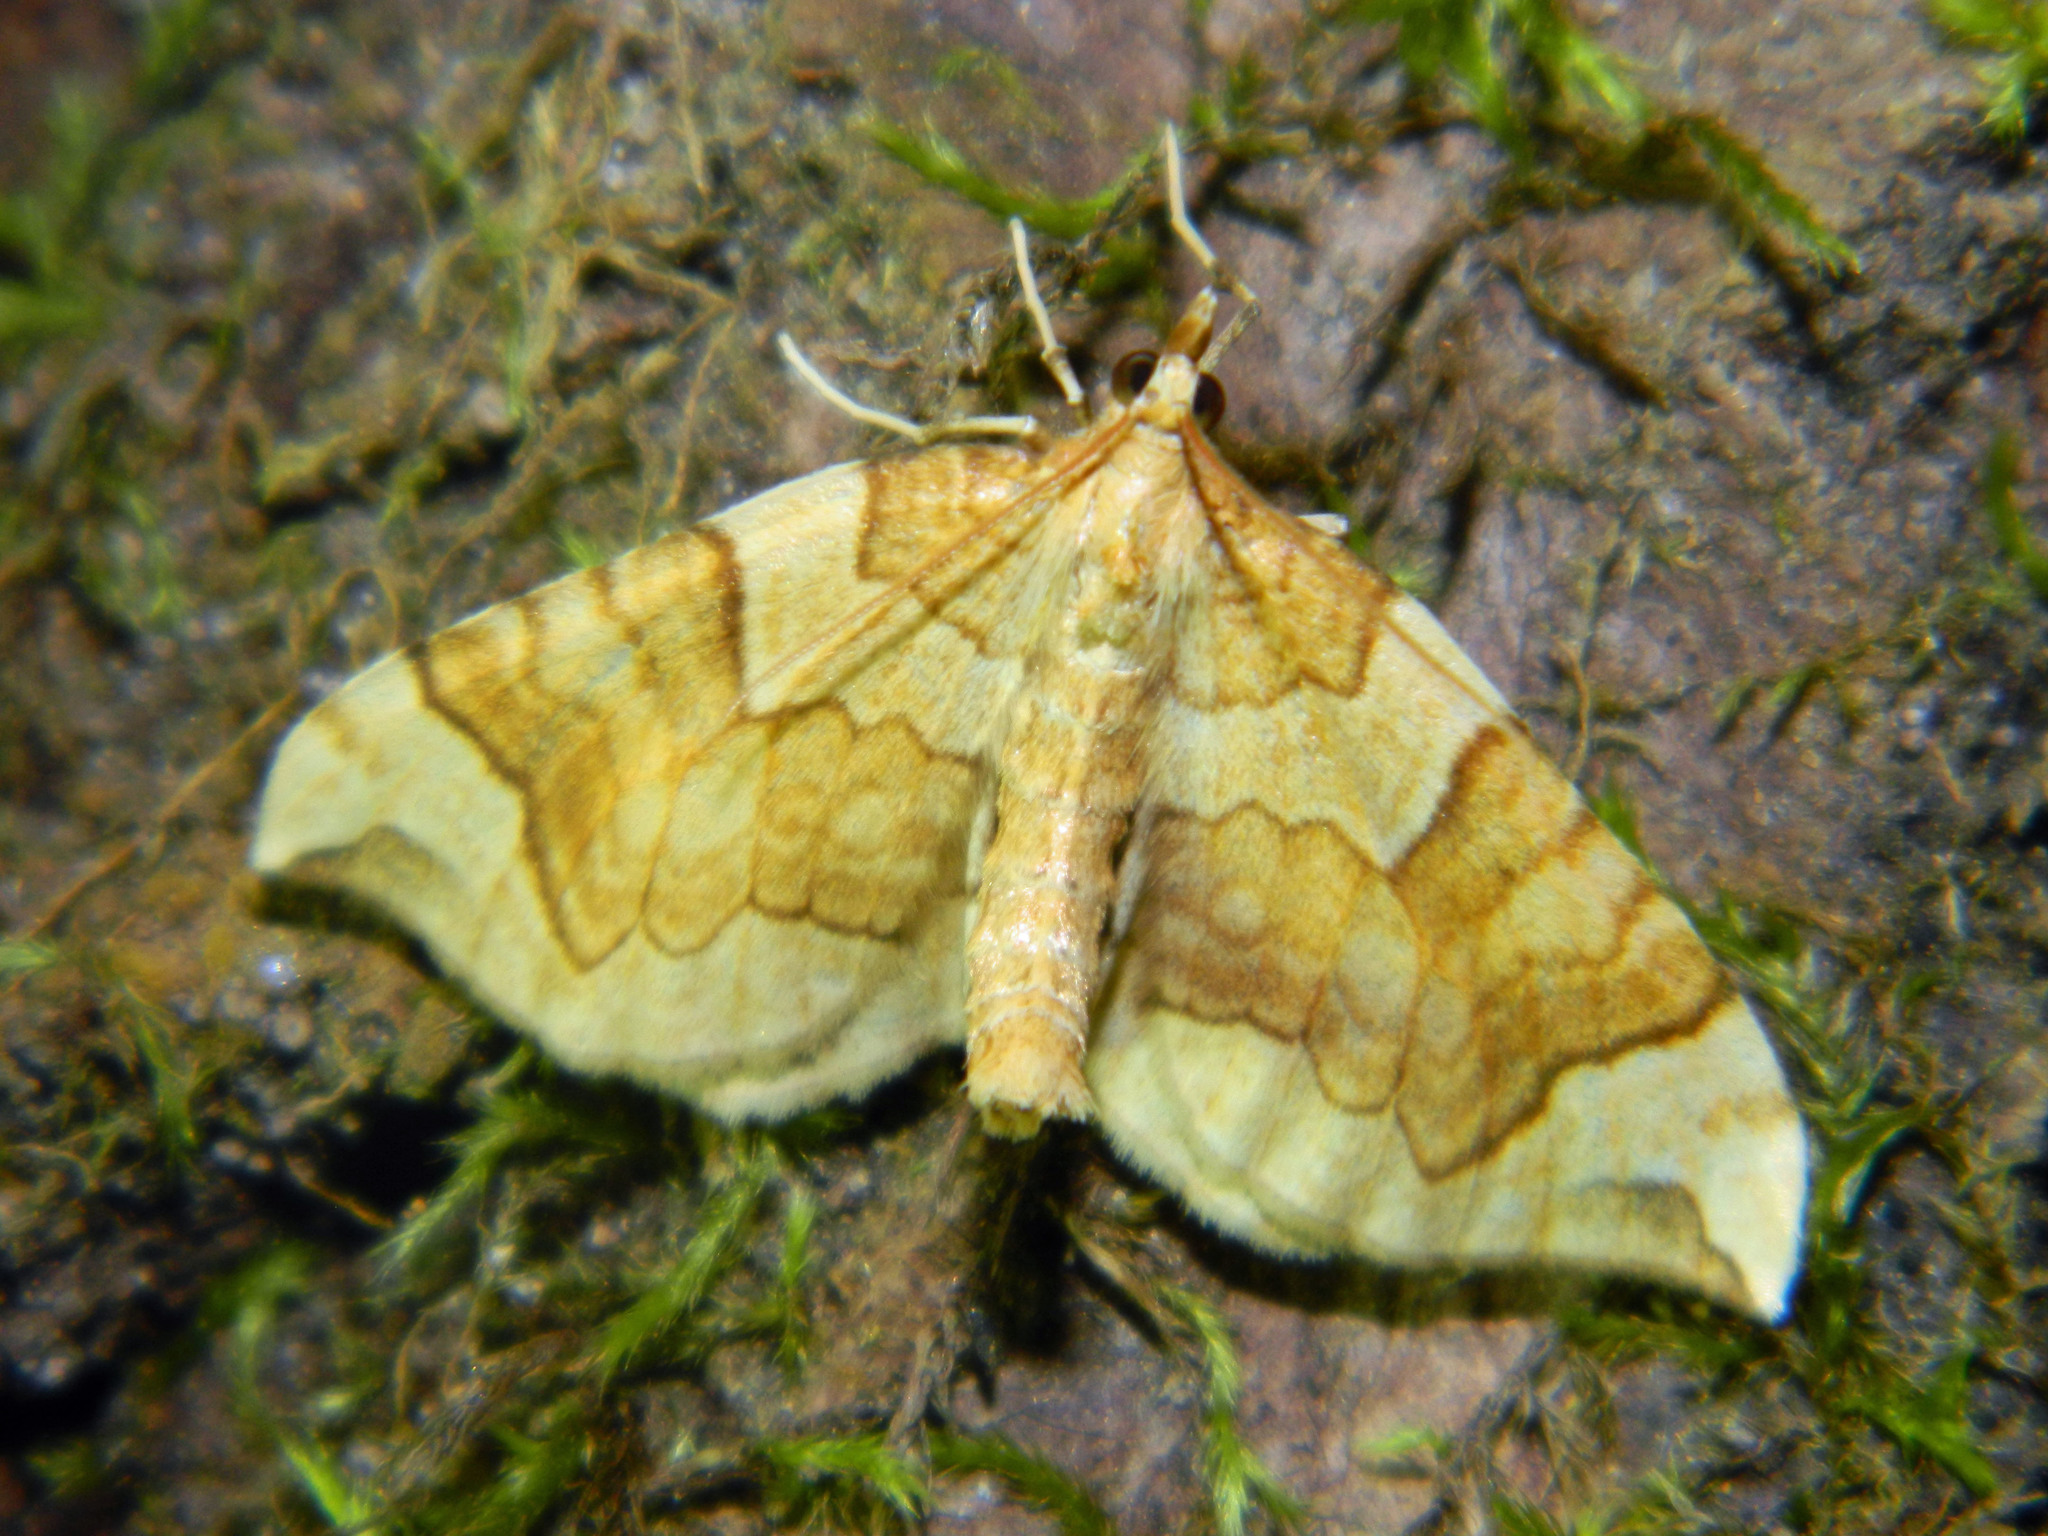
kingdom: Animalia
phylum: Arthropoda
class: Insecta
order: Lepidoptera
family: Geometridae
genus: Eulithis
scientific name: Eulithis propulsata
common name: Currant eulithis moth
